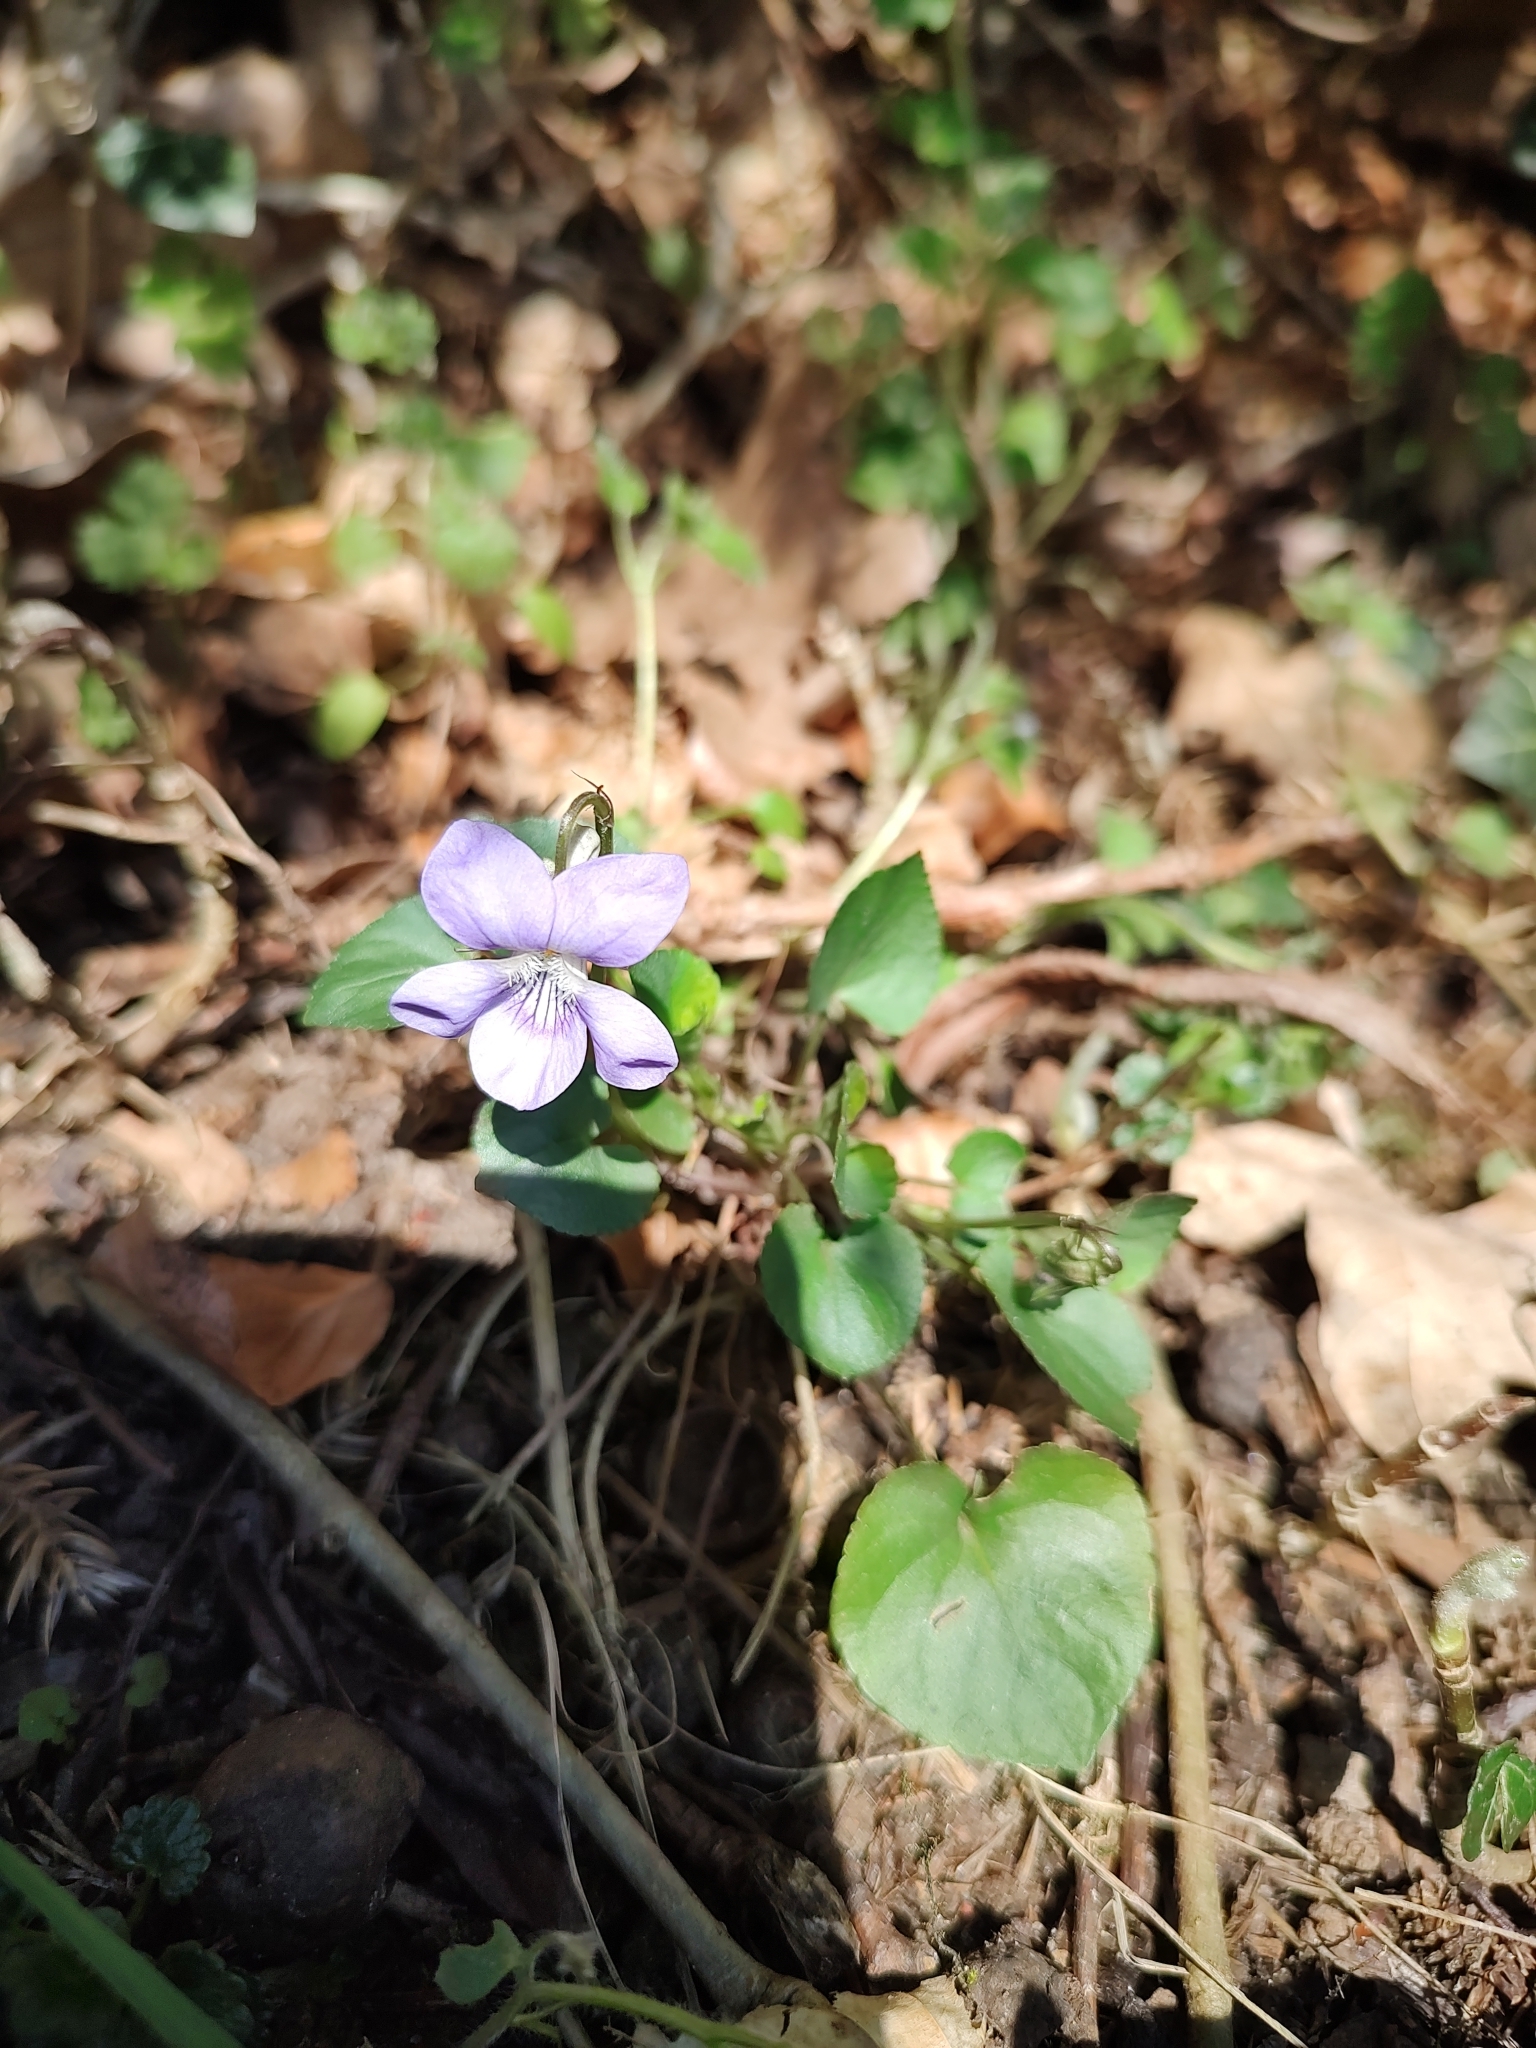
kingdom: Plantae
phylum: Tracheophyta
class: Magnoliopsida
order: Malpighiales
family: Violaceae
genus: Viola
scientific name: Viola riviniana
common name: Common dog-violet
